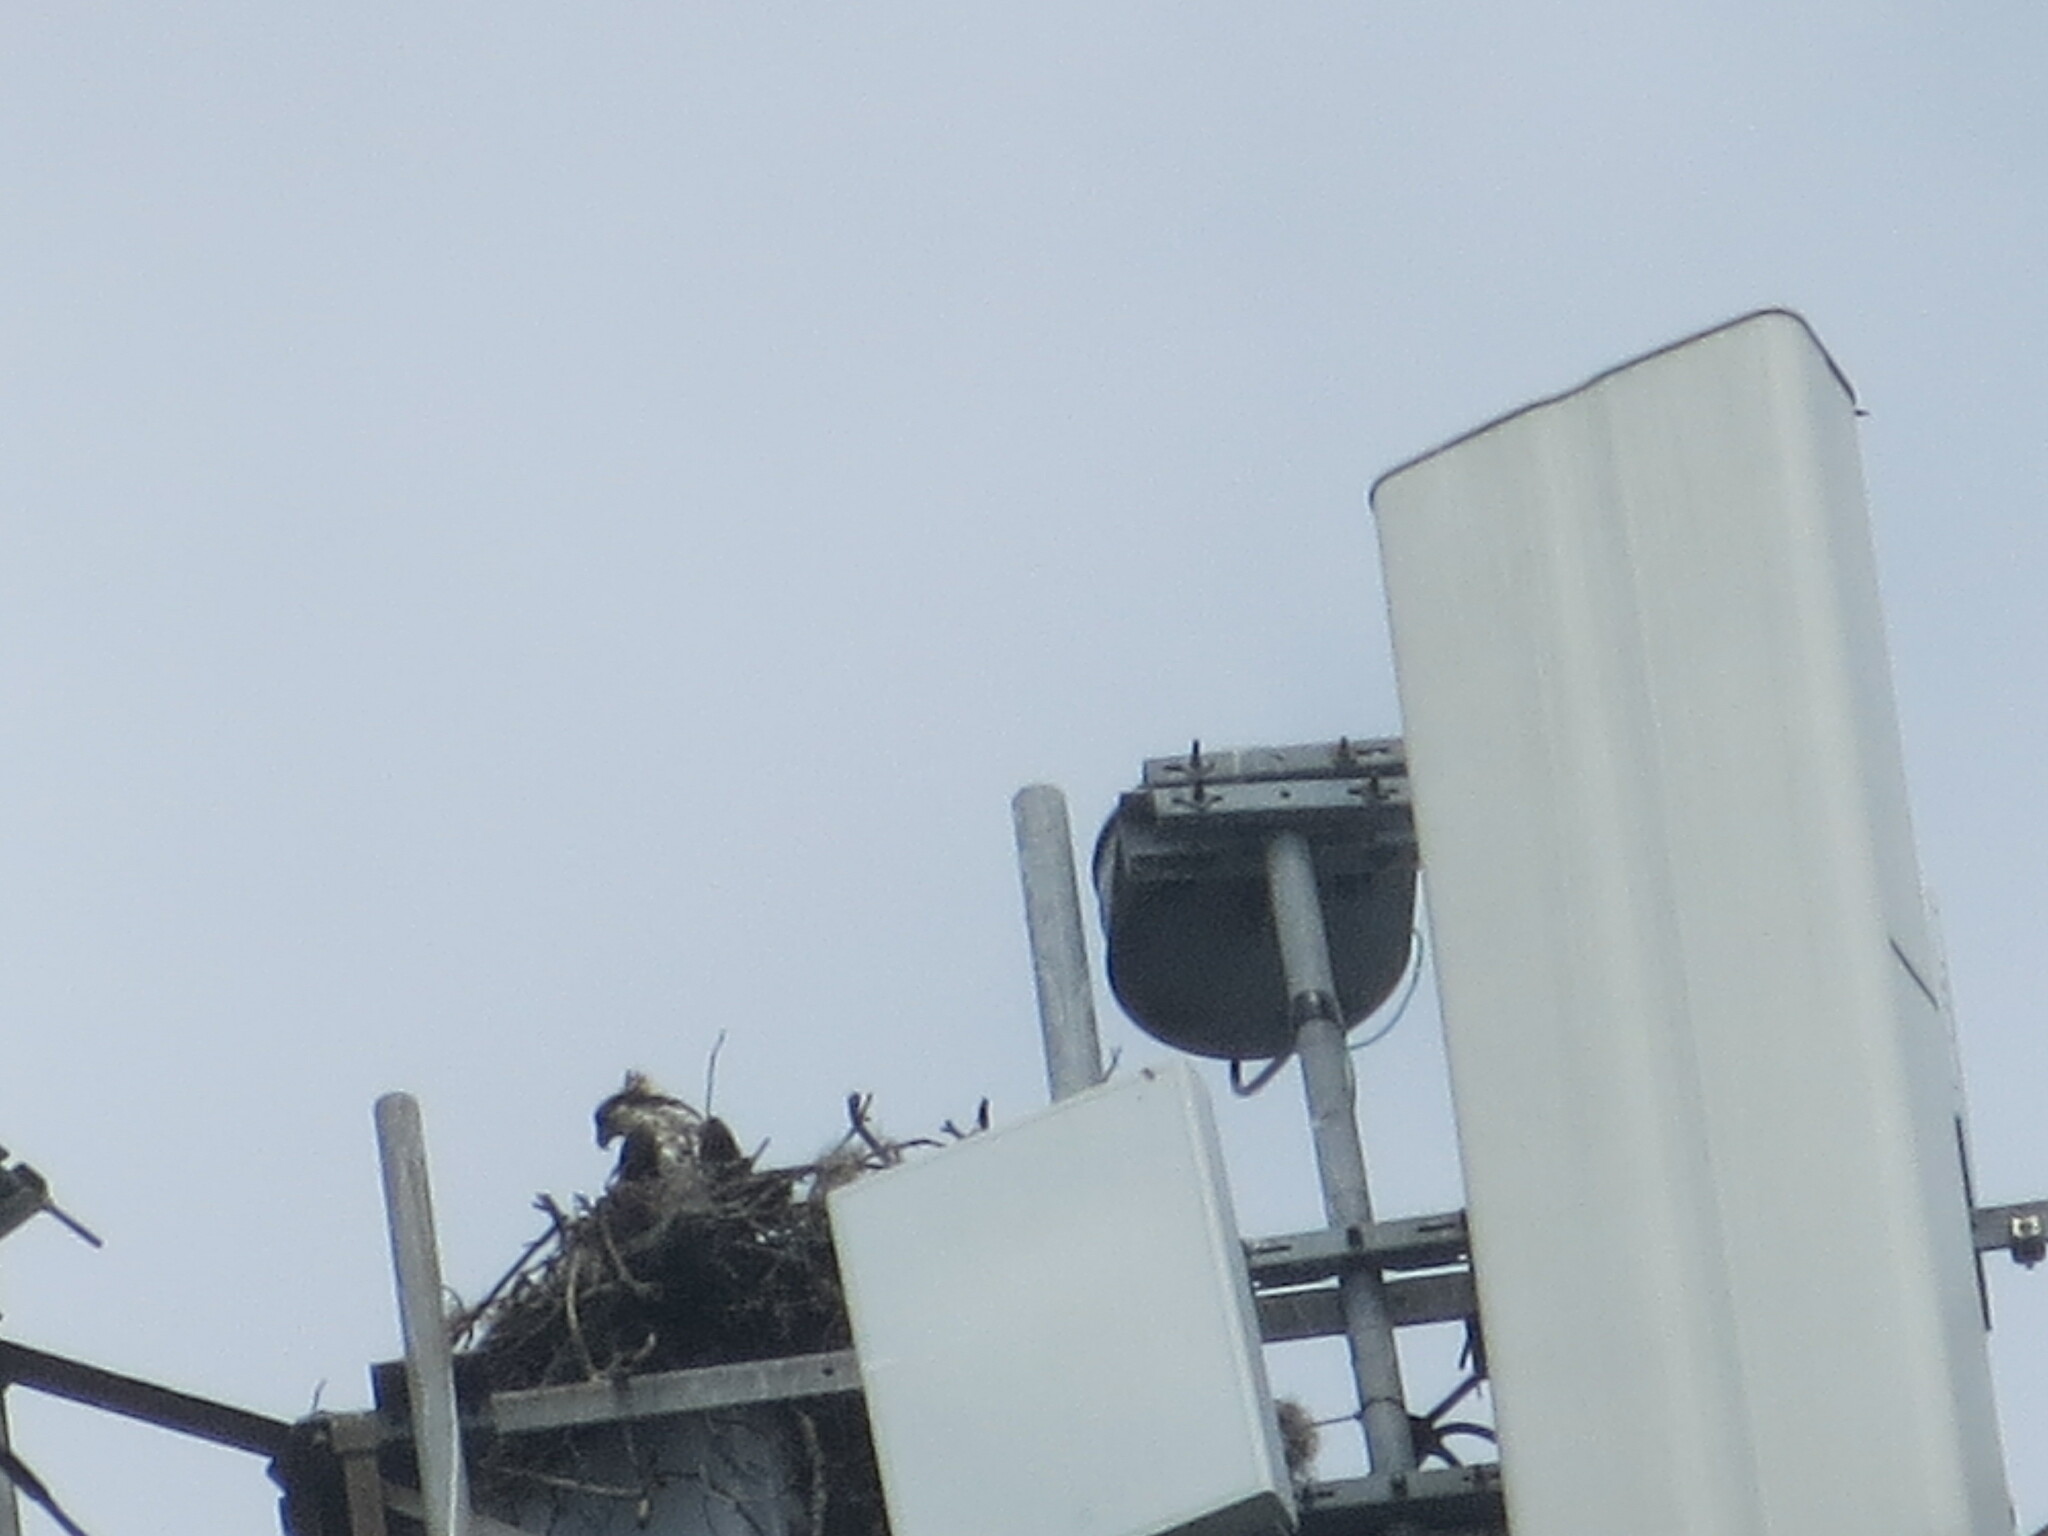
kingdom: Animalia
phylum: Chordata
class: Aves
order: Accipitriformes
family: Pandionidae
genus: Pandion
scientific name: Pandion haliaetus
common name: Osprey
